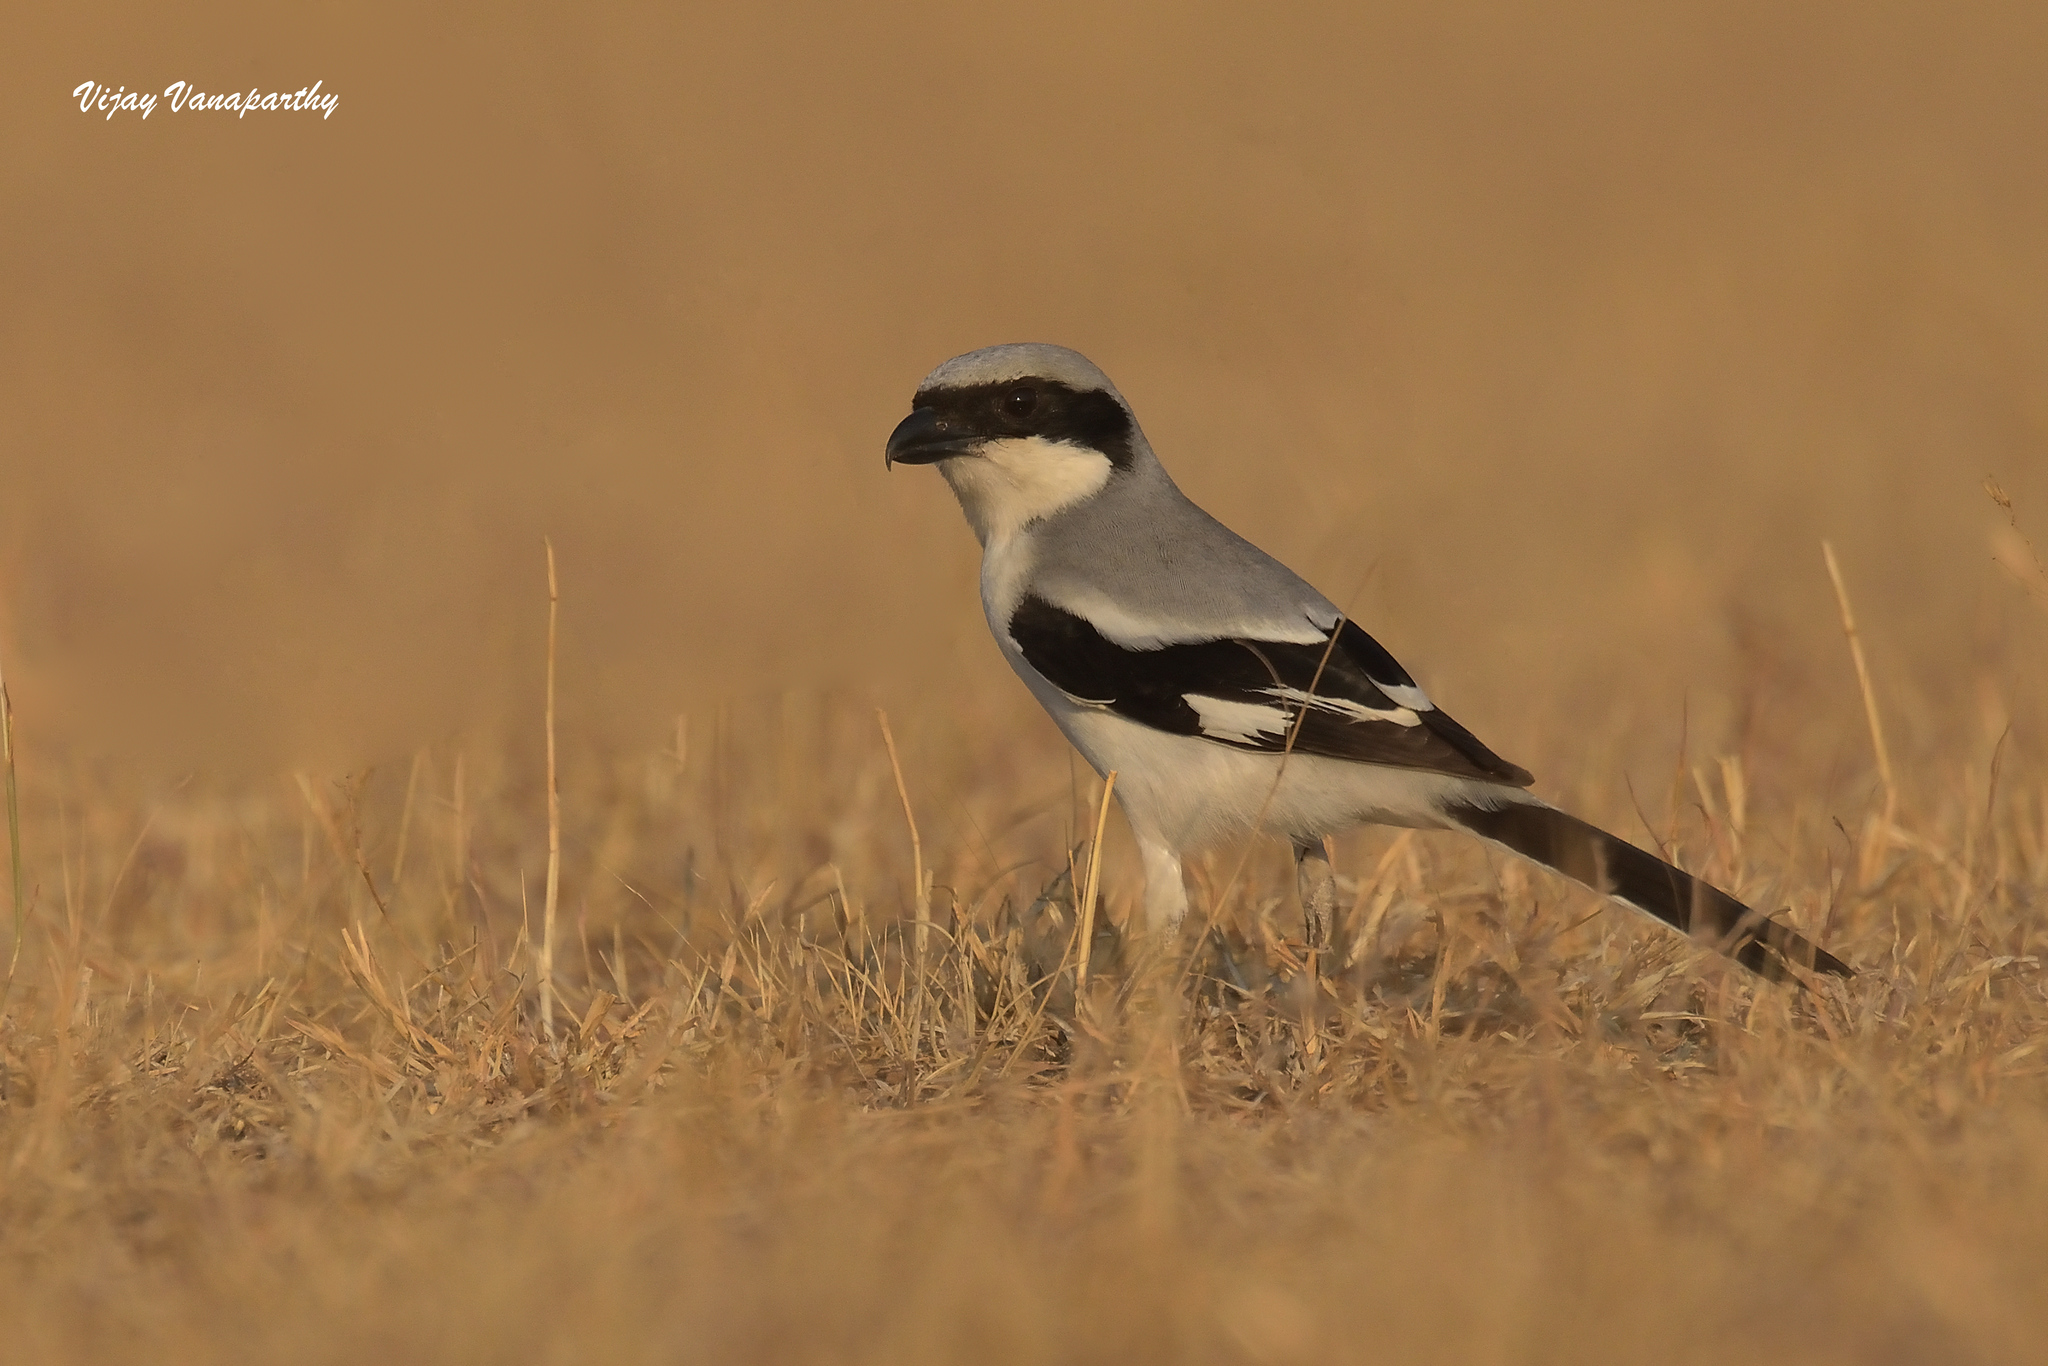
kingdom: Animalia
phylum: Chordata
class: Aves
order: Passeriformes
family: Laniidae
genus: Lanius
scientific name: Lanius excubitor
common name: Great grey shrike
